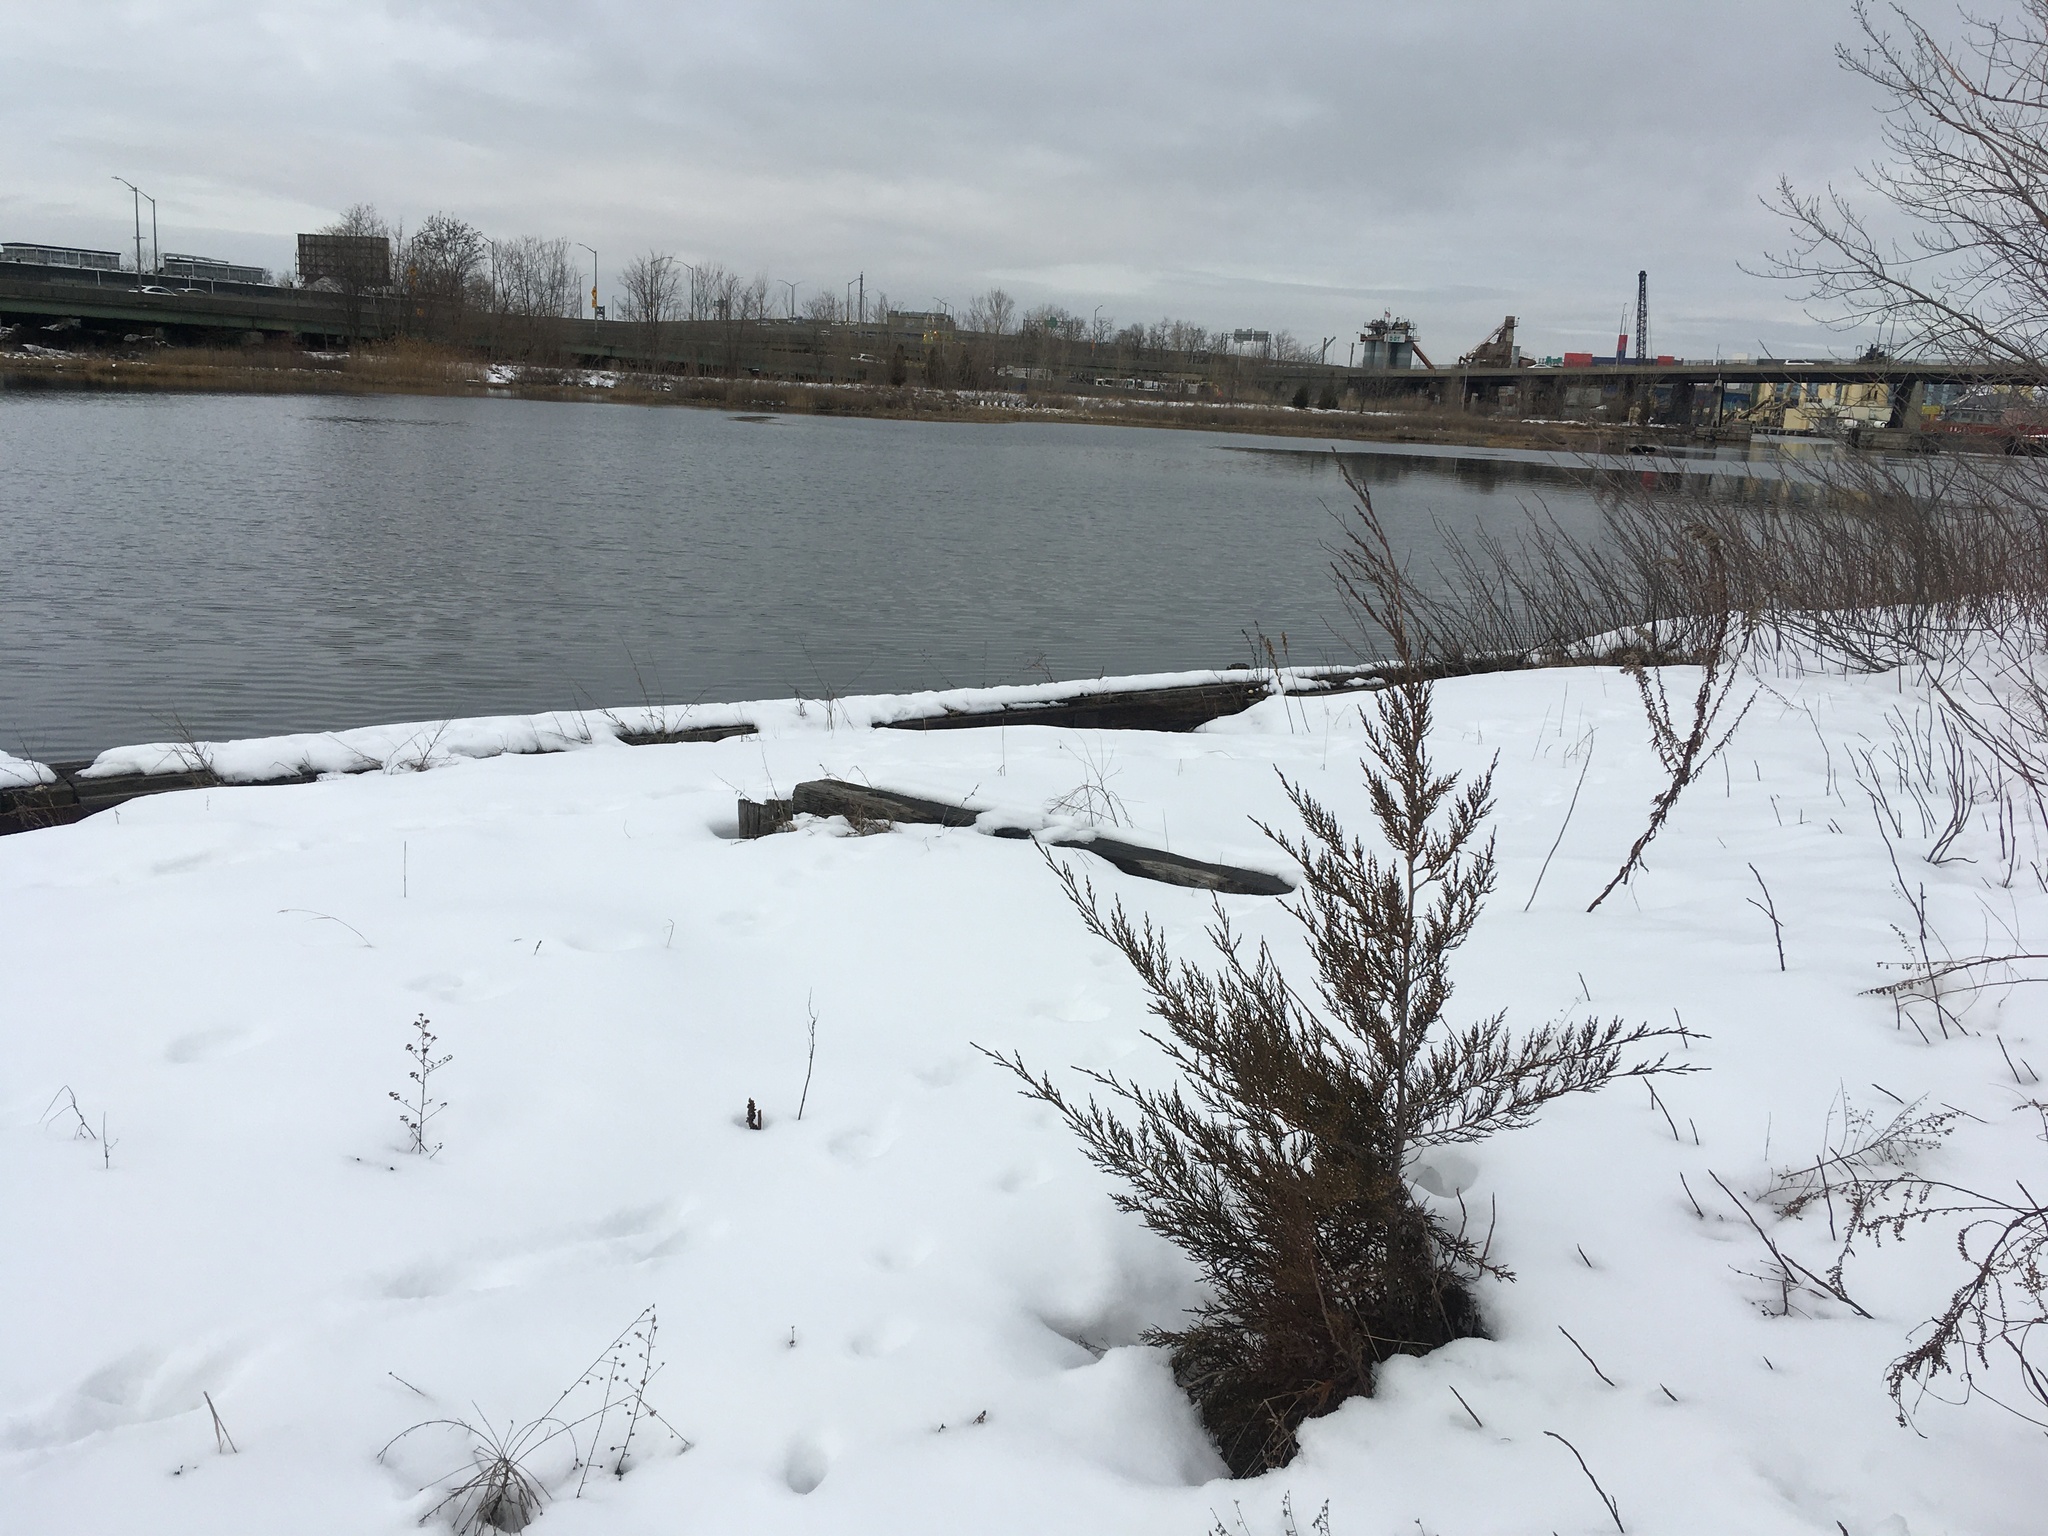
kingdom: Plantae
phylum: Tracheophyta
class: Pinopsida
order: Pinales
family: Cupressaceae
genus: Juniperus
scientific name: Juniperus virginiana
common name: Red juniper
